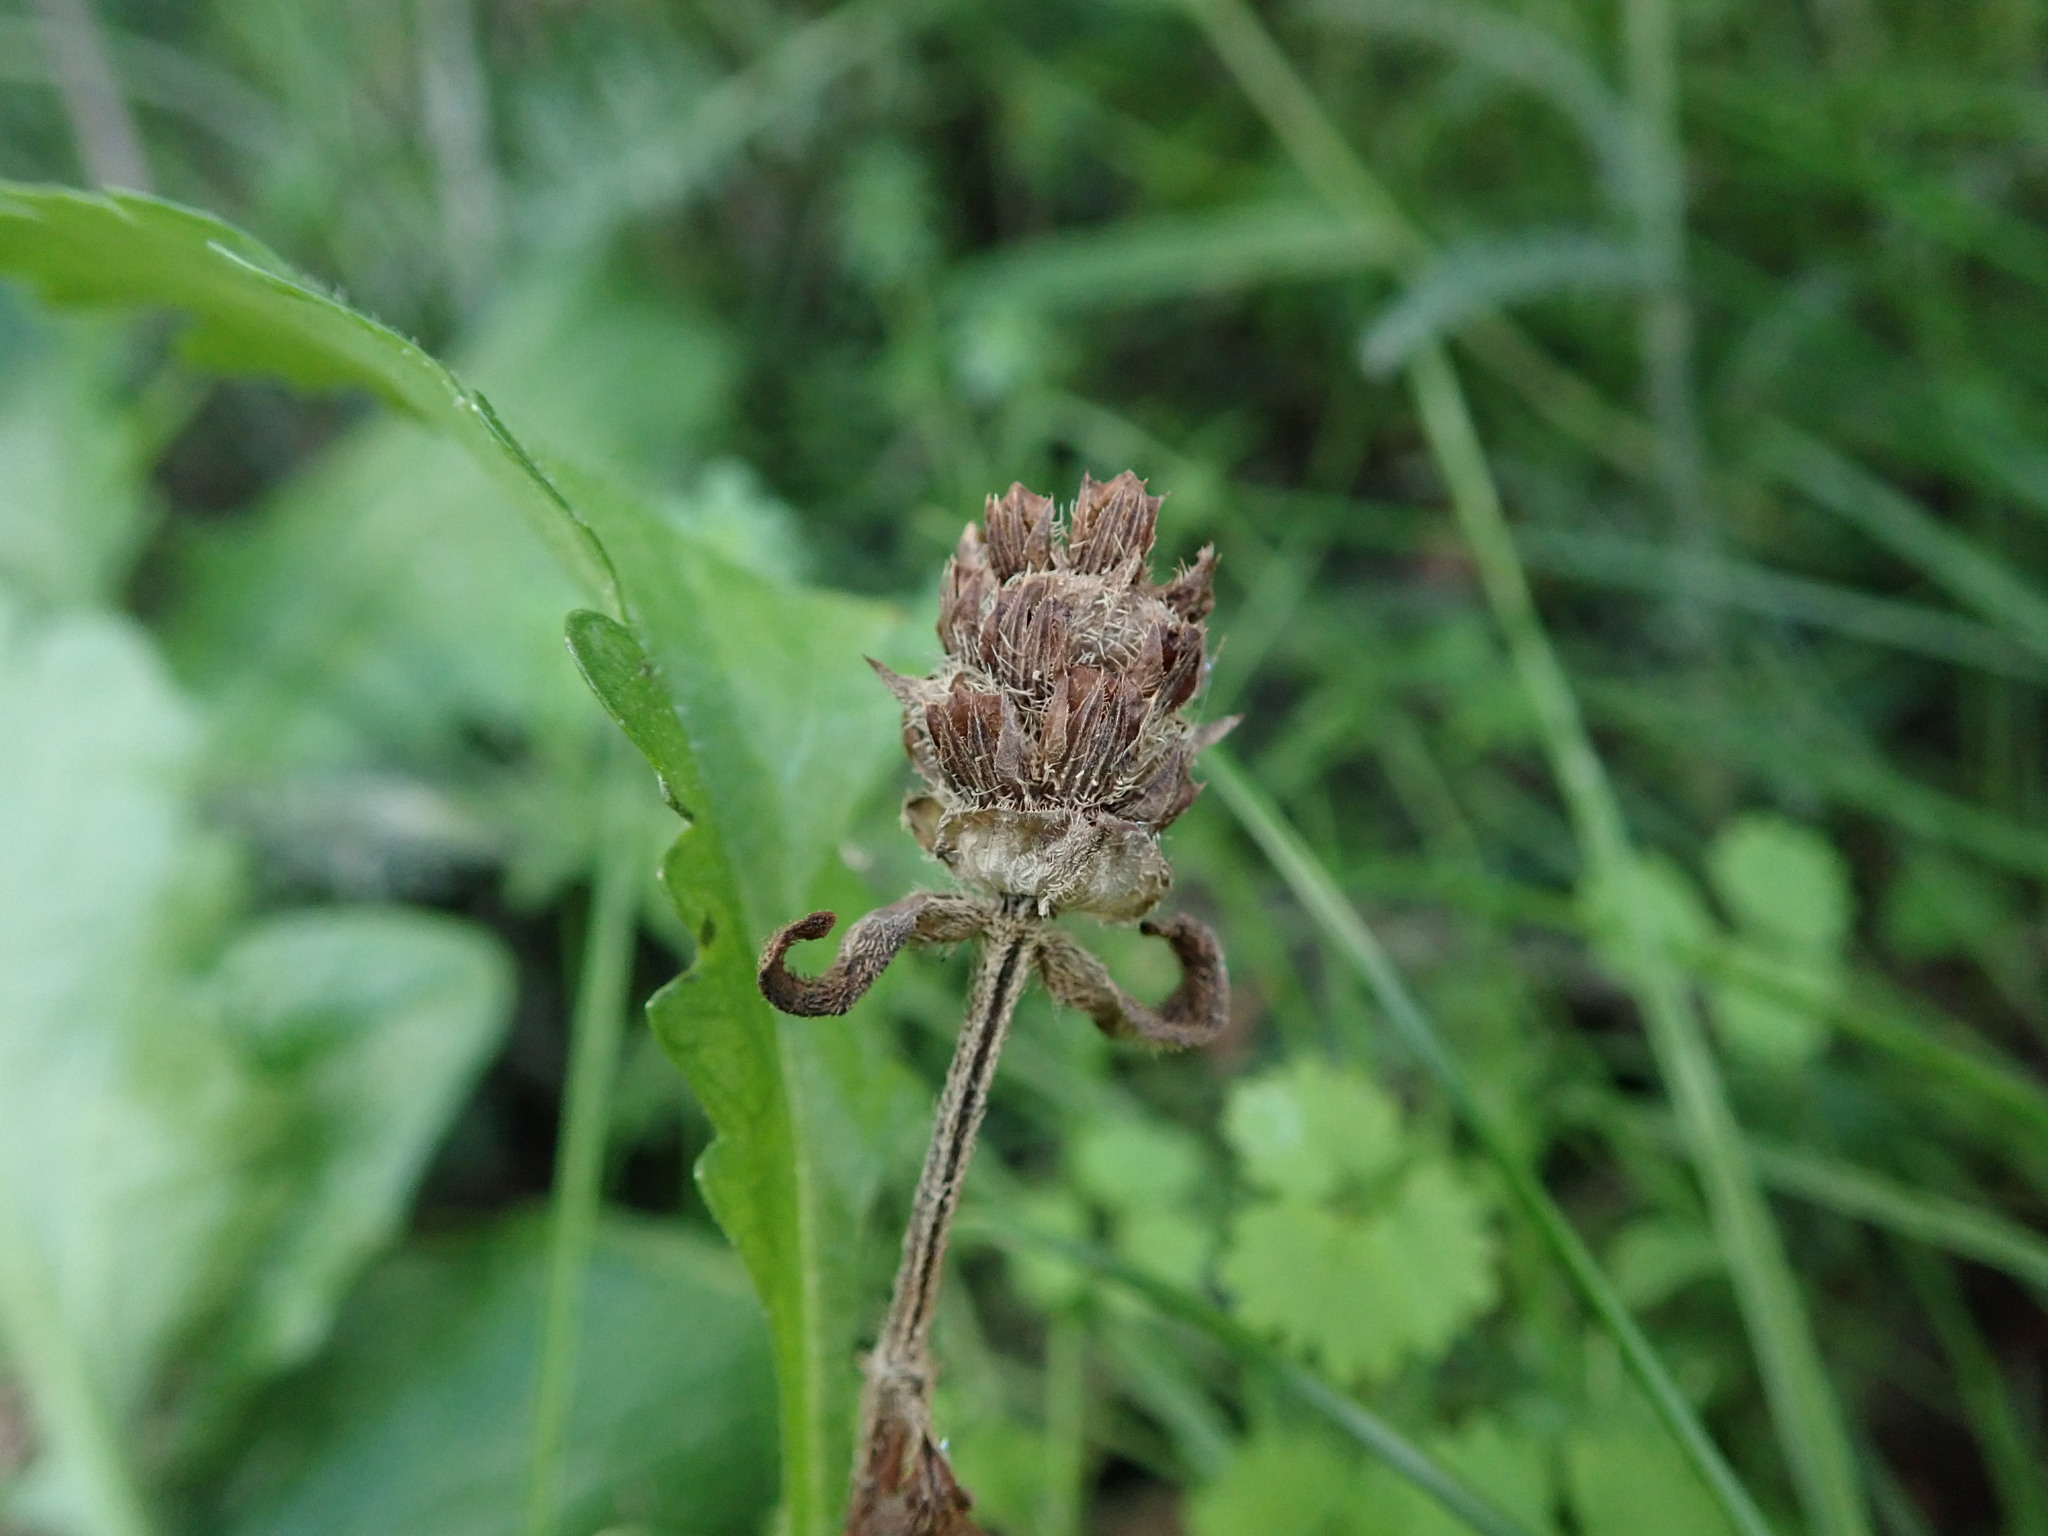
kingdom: Plantae
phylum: Tracheophyta
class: Magnoliopsida
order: Lamiales
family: Lamiaceae
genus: Prunella
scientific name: Prunella vulgaris
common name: Heal-all
